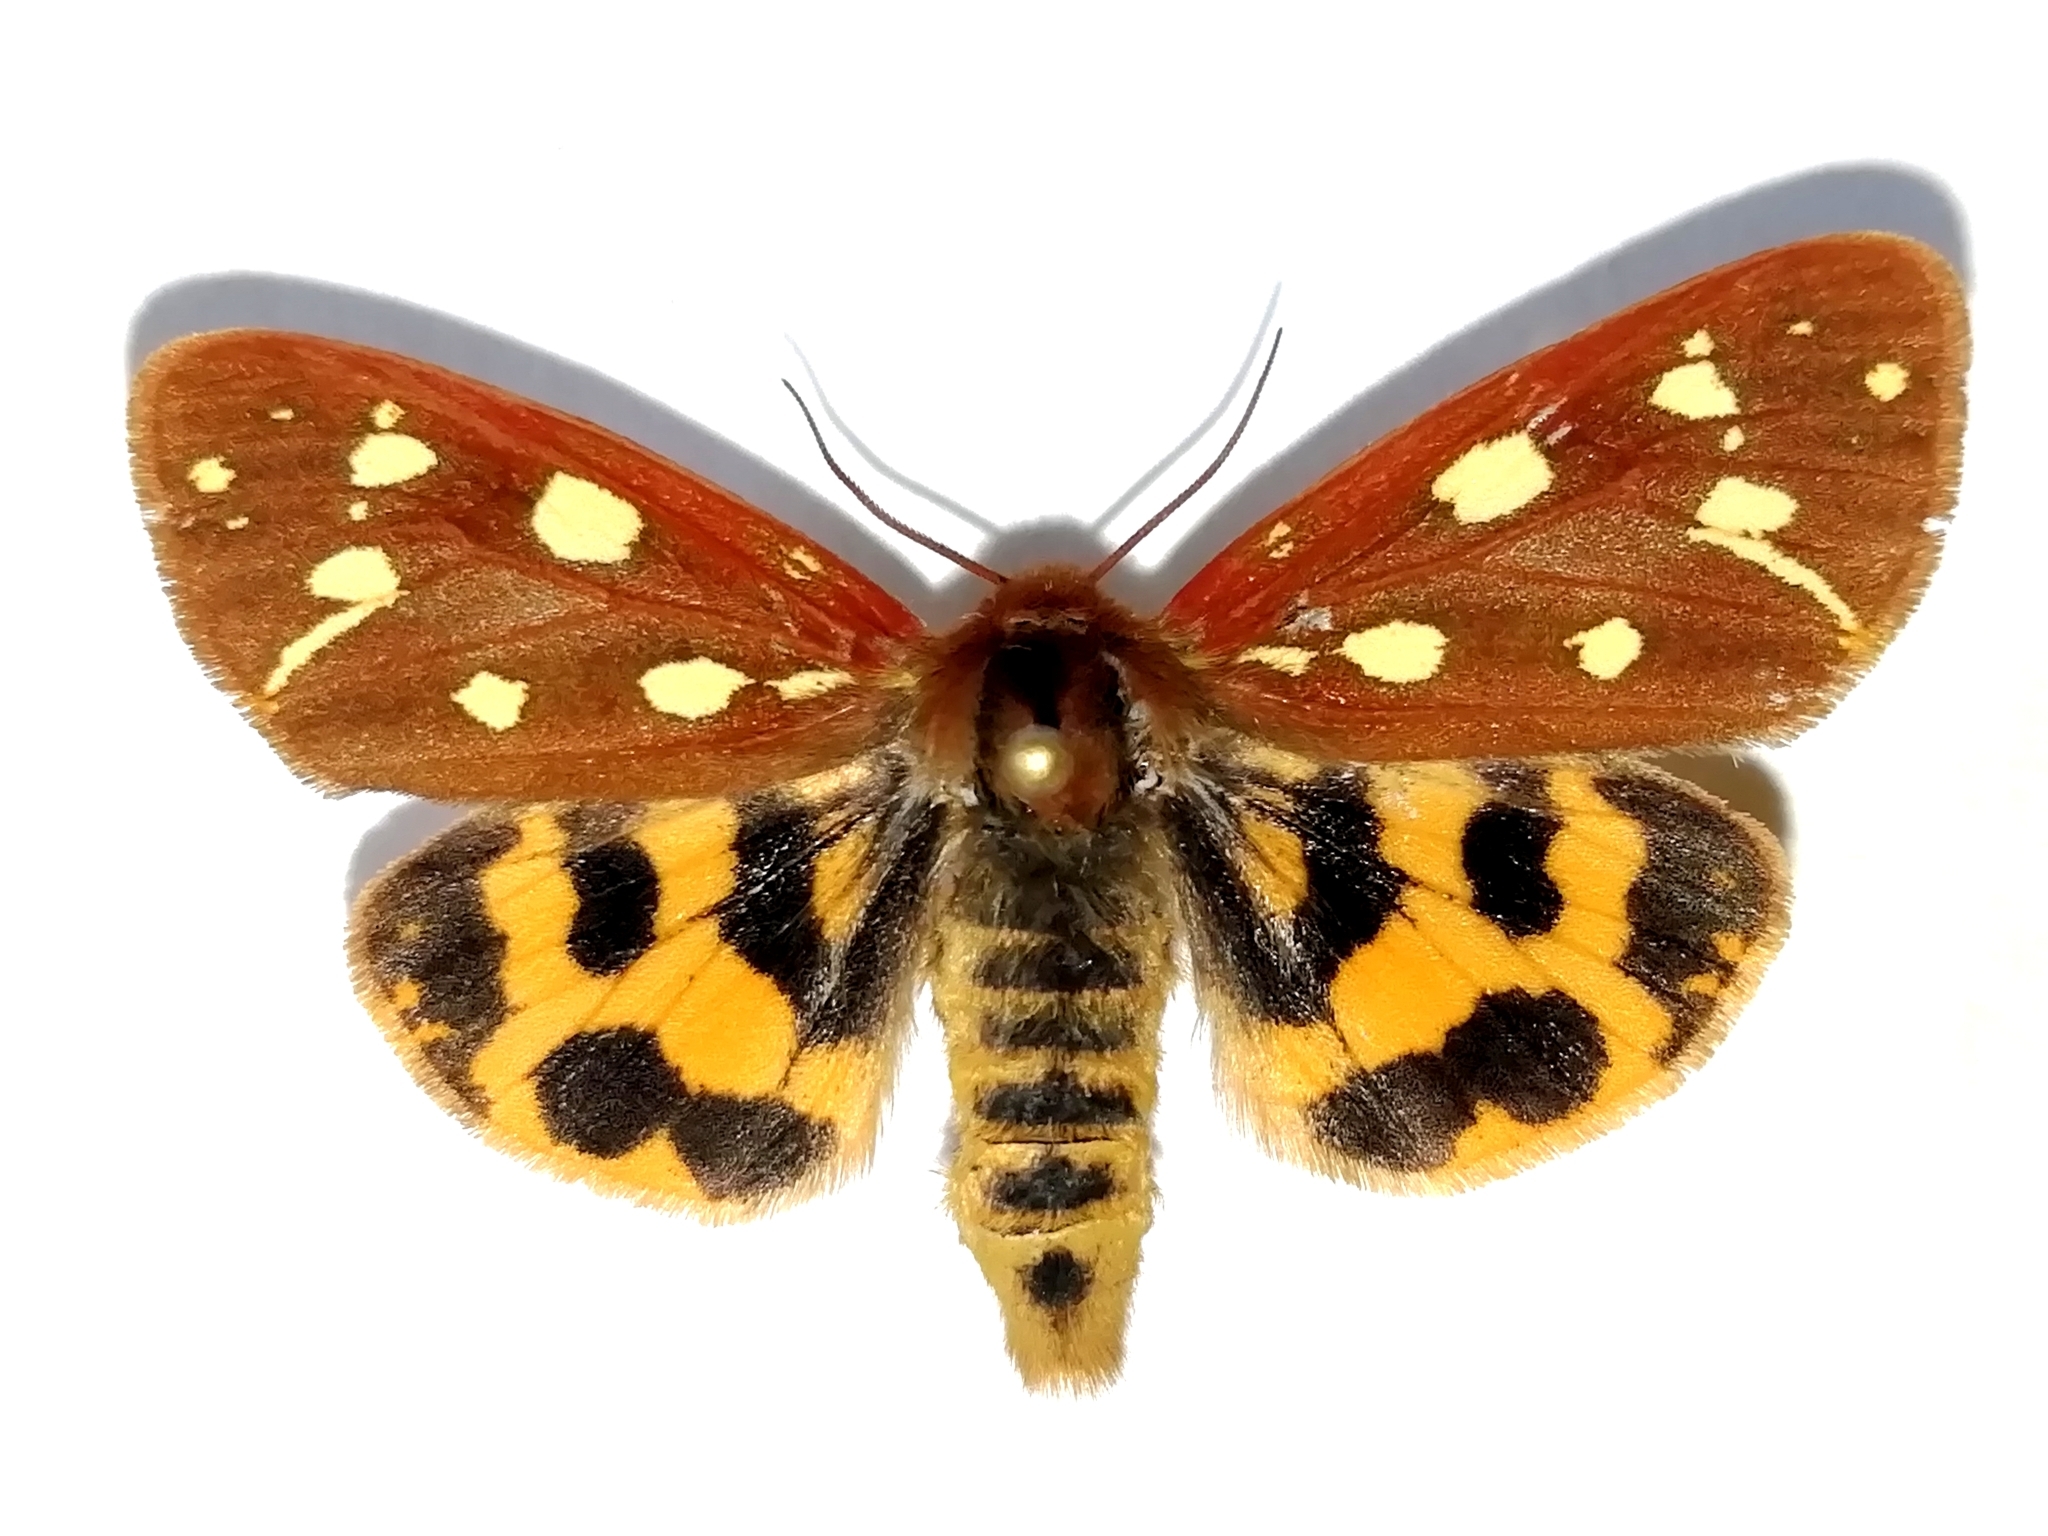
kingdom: Animalia
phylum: Arthropoda
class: Insecta
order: Lepidoptera
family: Erebidae
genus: Hyphoraia
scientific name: Hyphoraia aulica
